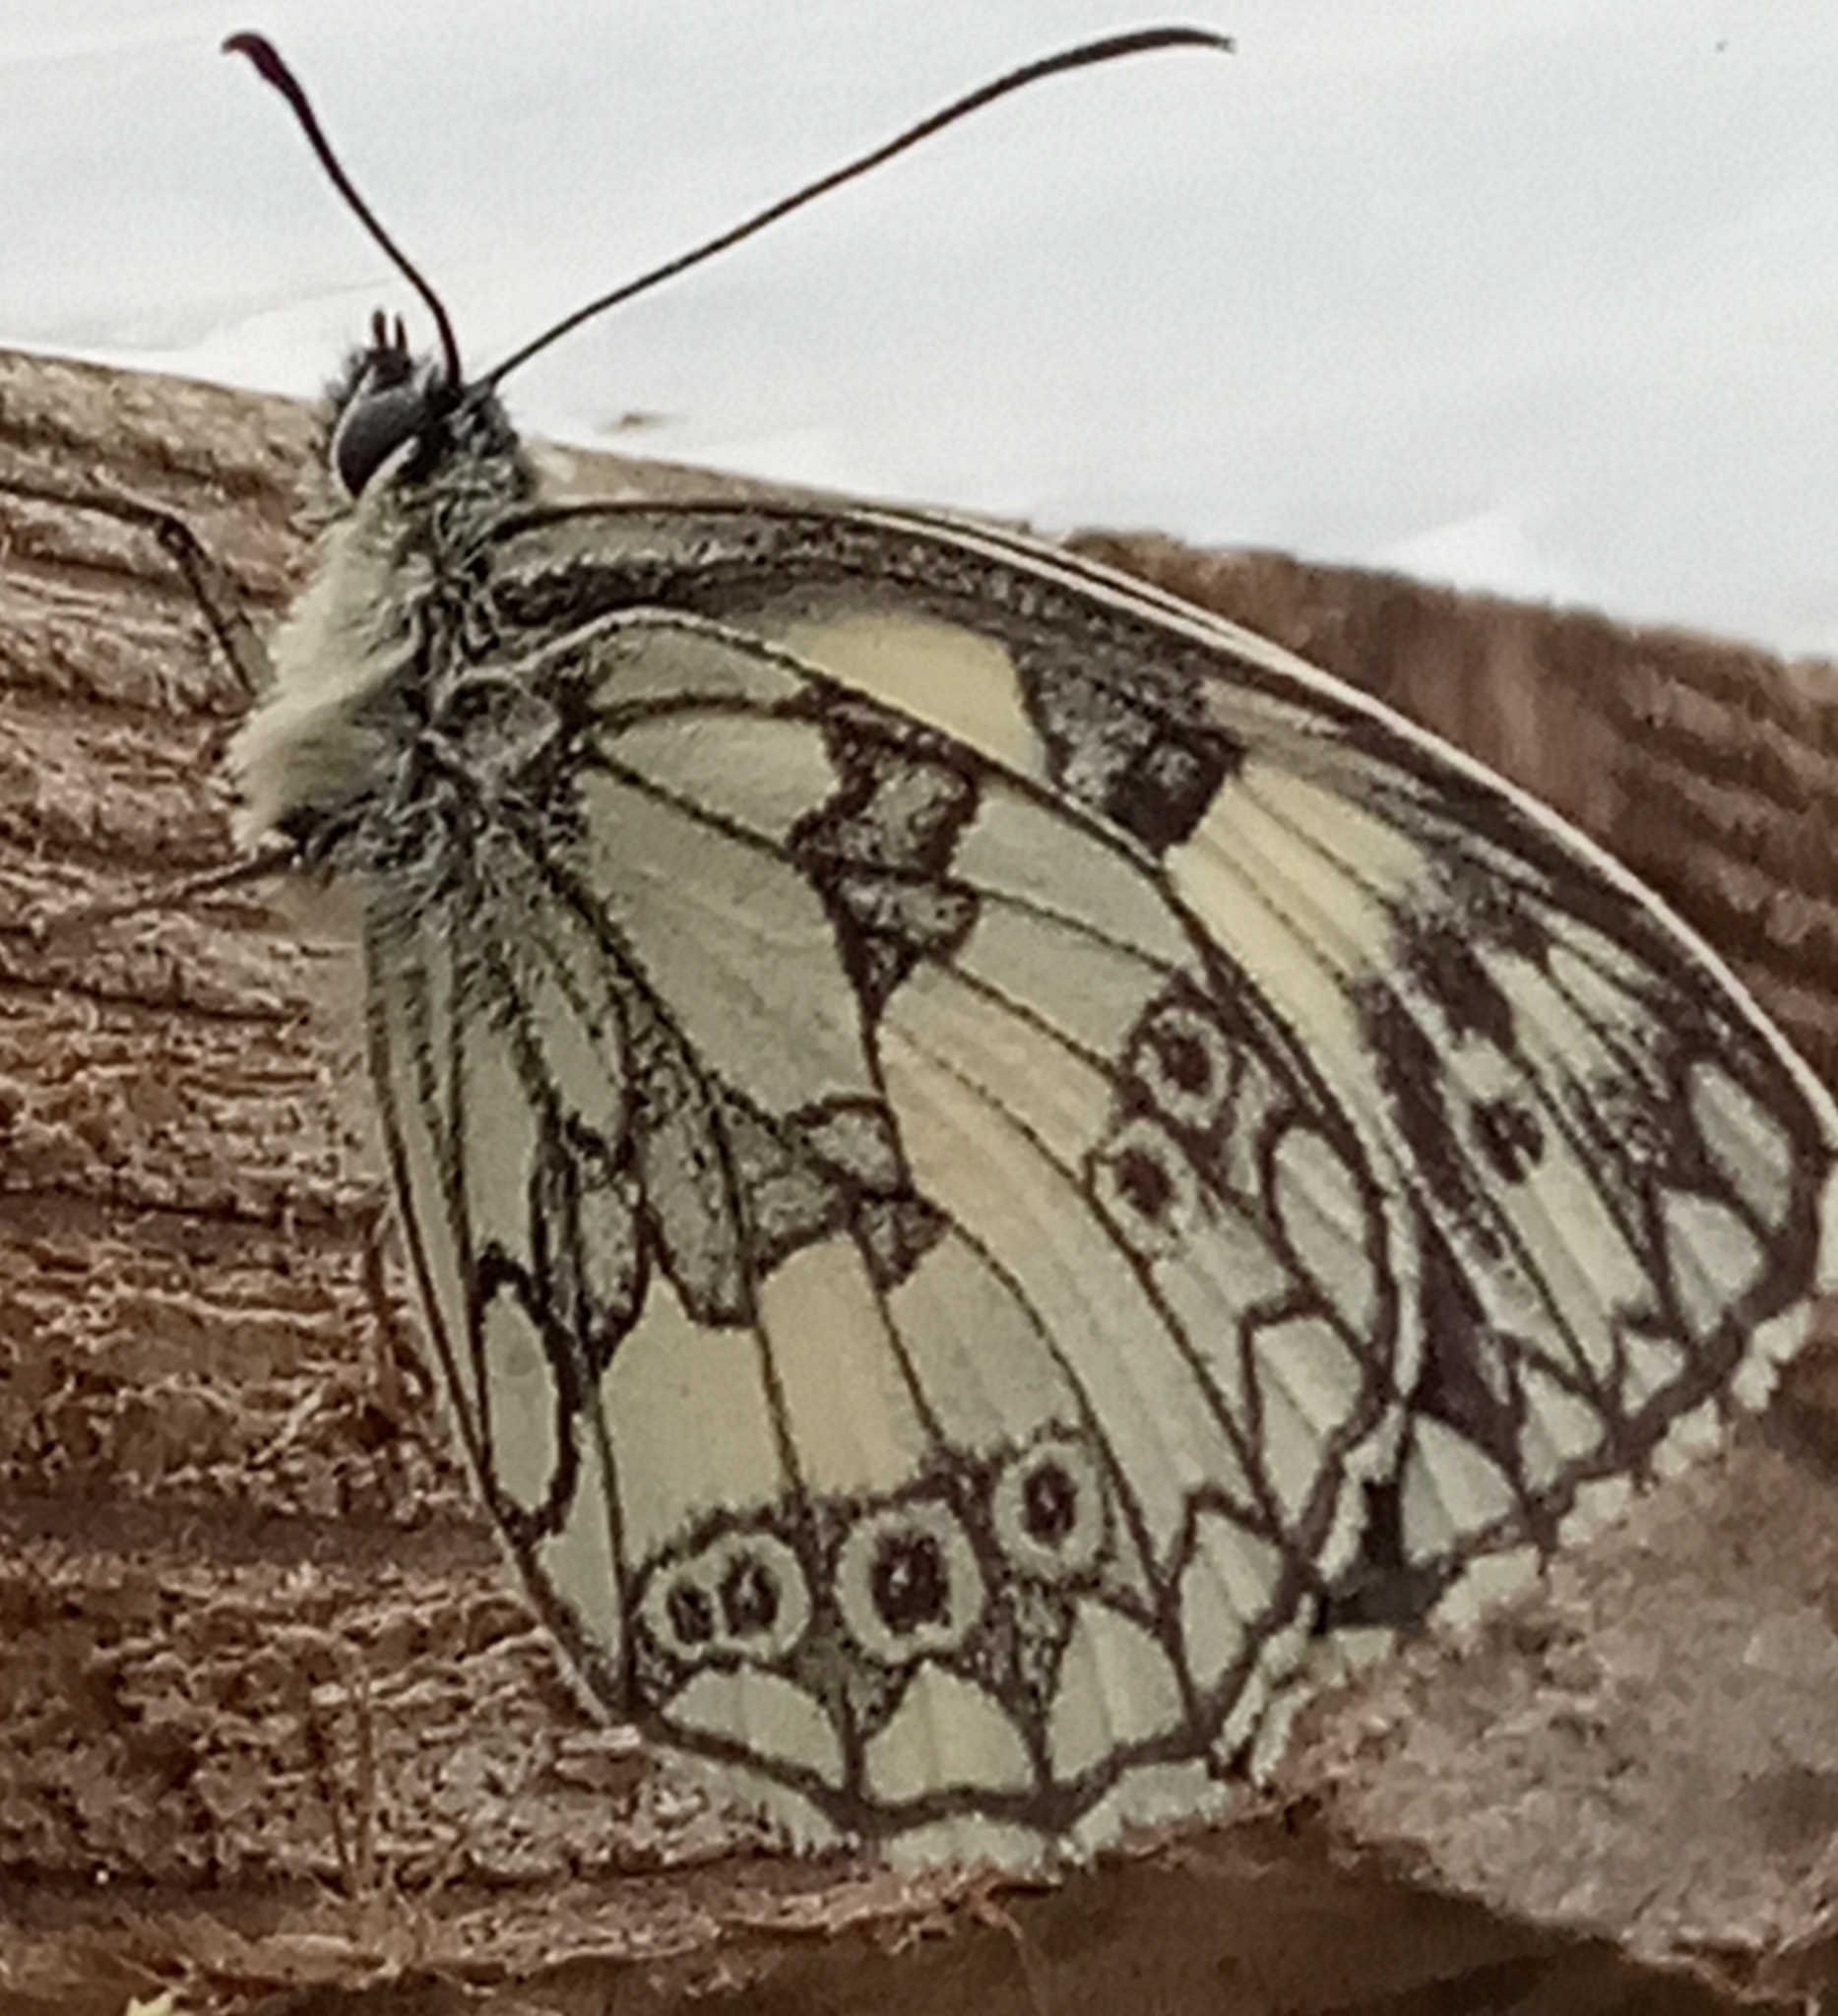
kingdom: Animalia
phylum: Arthropoda
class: Insecta
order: Lepidoptera
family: Nymphalidae
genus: Melanargia
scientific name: Melanargia galathea
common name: Marbled white
